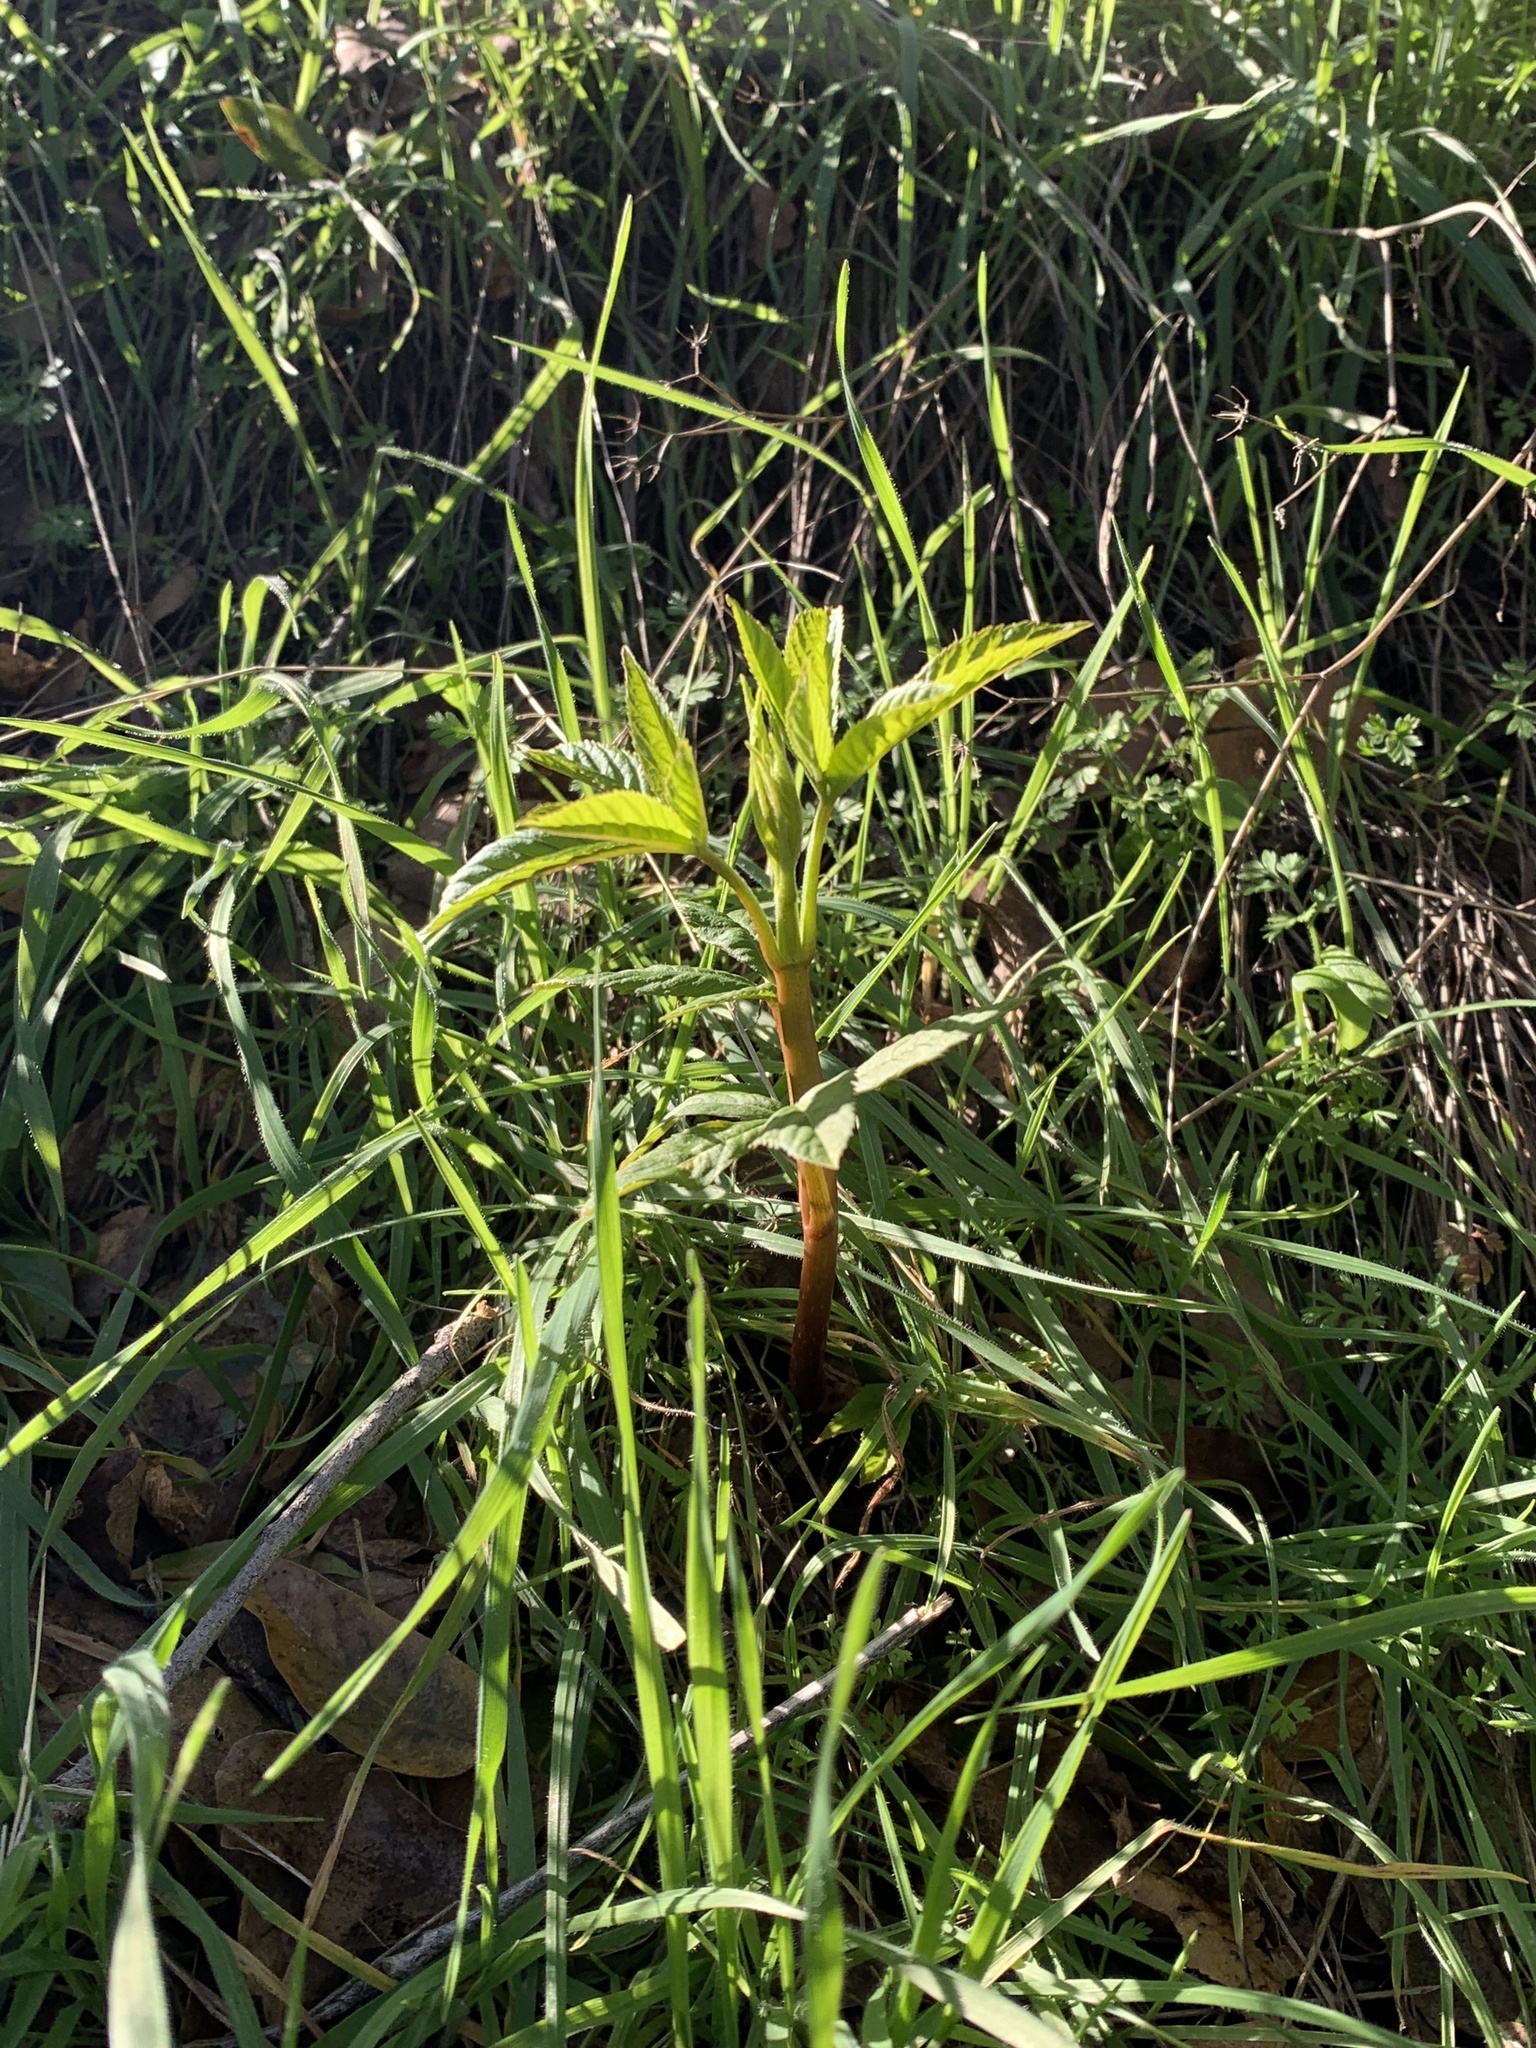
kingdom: Plantae
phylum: Tracheophyta
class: Magnoliopsida
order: Sapindales
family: Sapindaceae
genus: Aesculus
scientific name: Aesculus californica
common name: California buckeye
